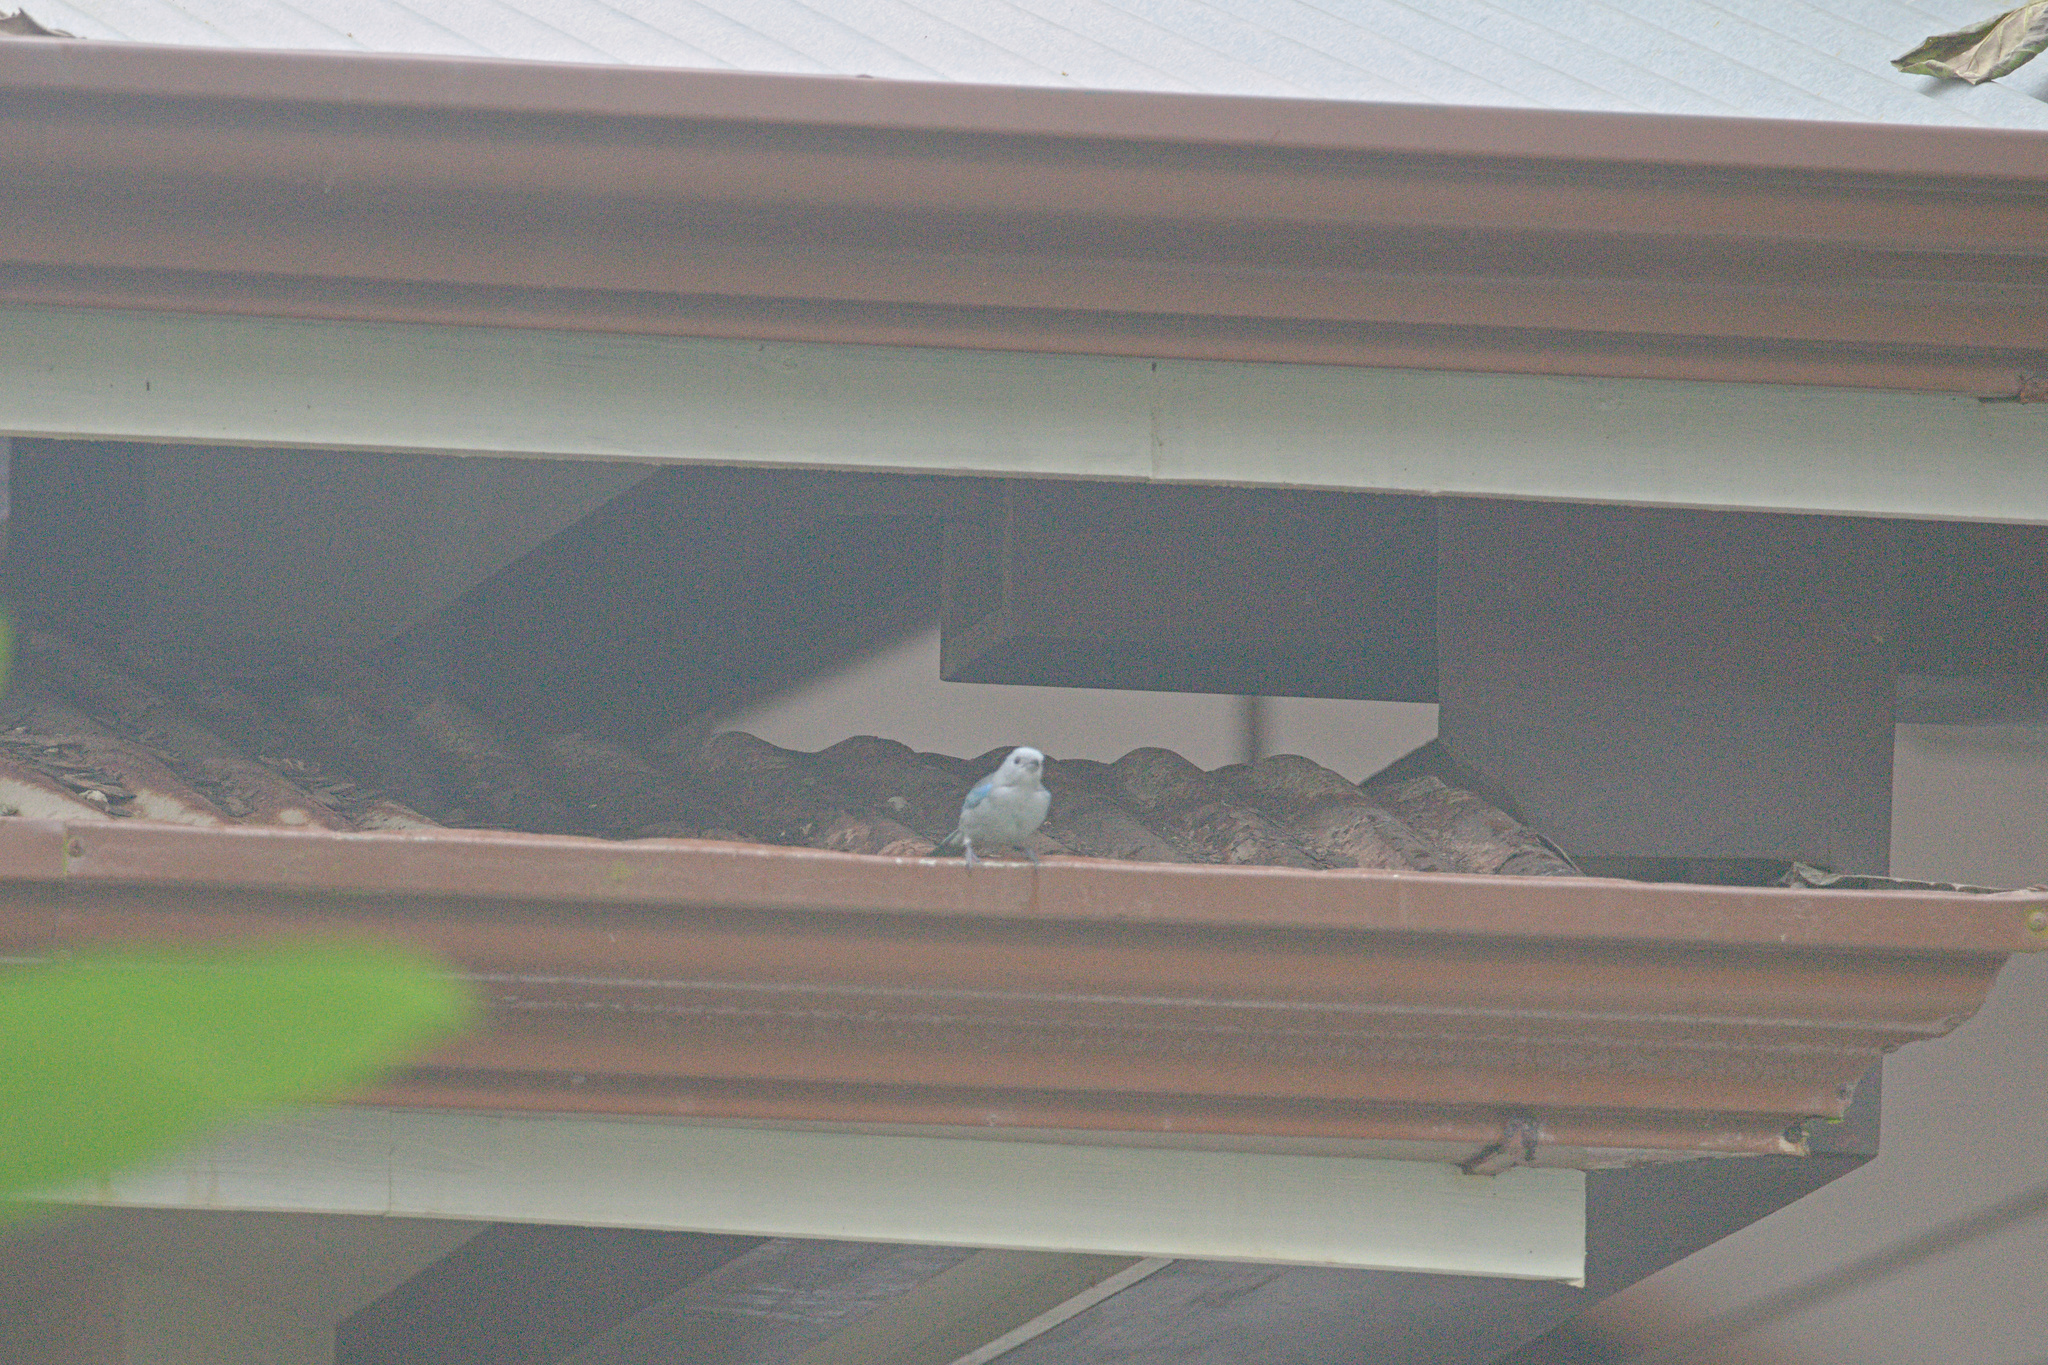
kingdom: Animalia
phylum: Chordata
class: Aves
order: Passeriformes
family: Thraupidae
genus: Thraupis
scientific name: Thraupis episcopus
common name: Blue-grey tanager
